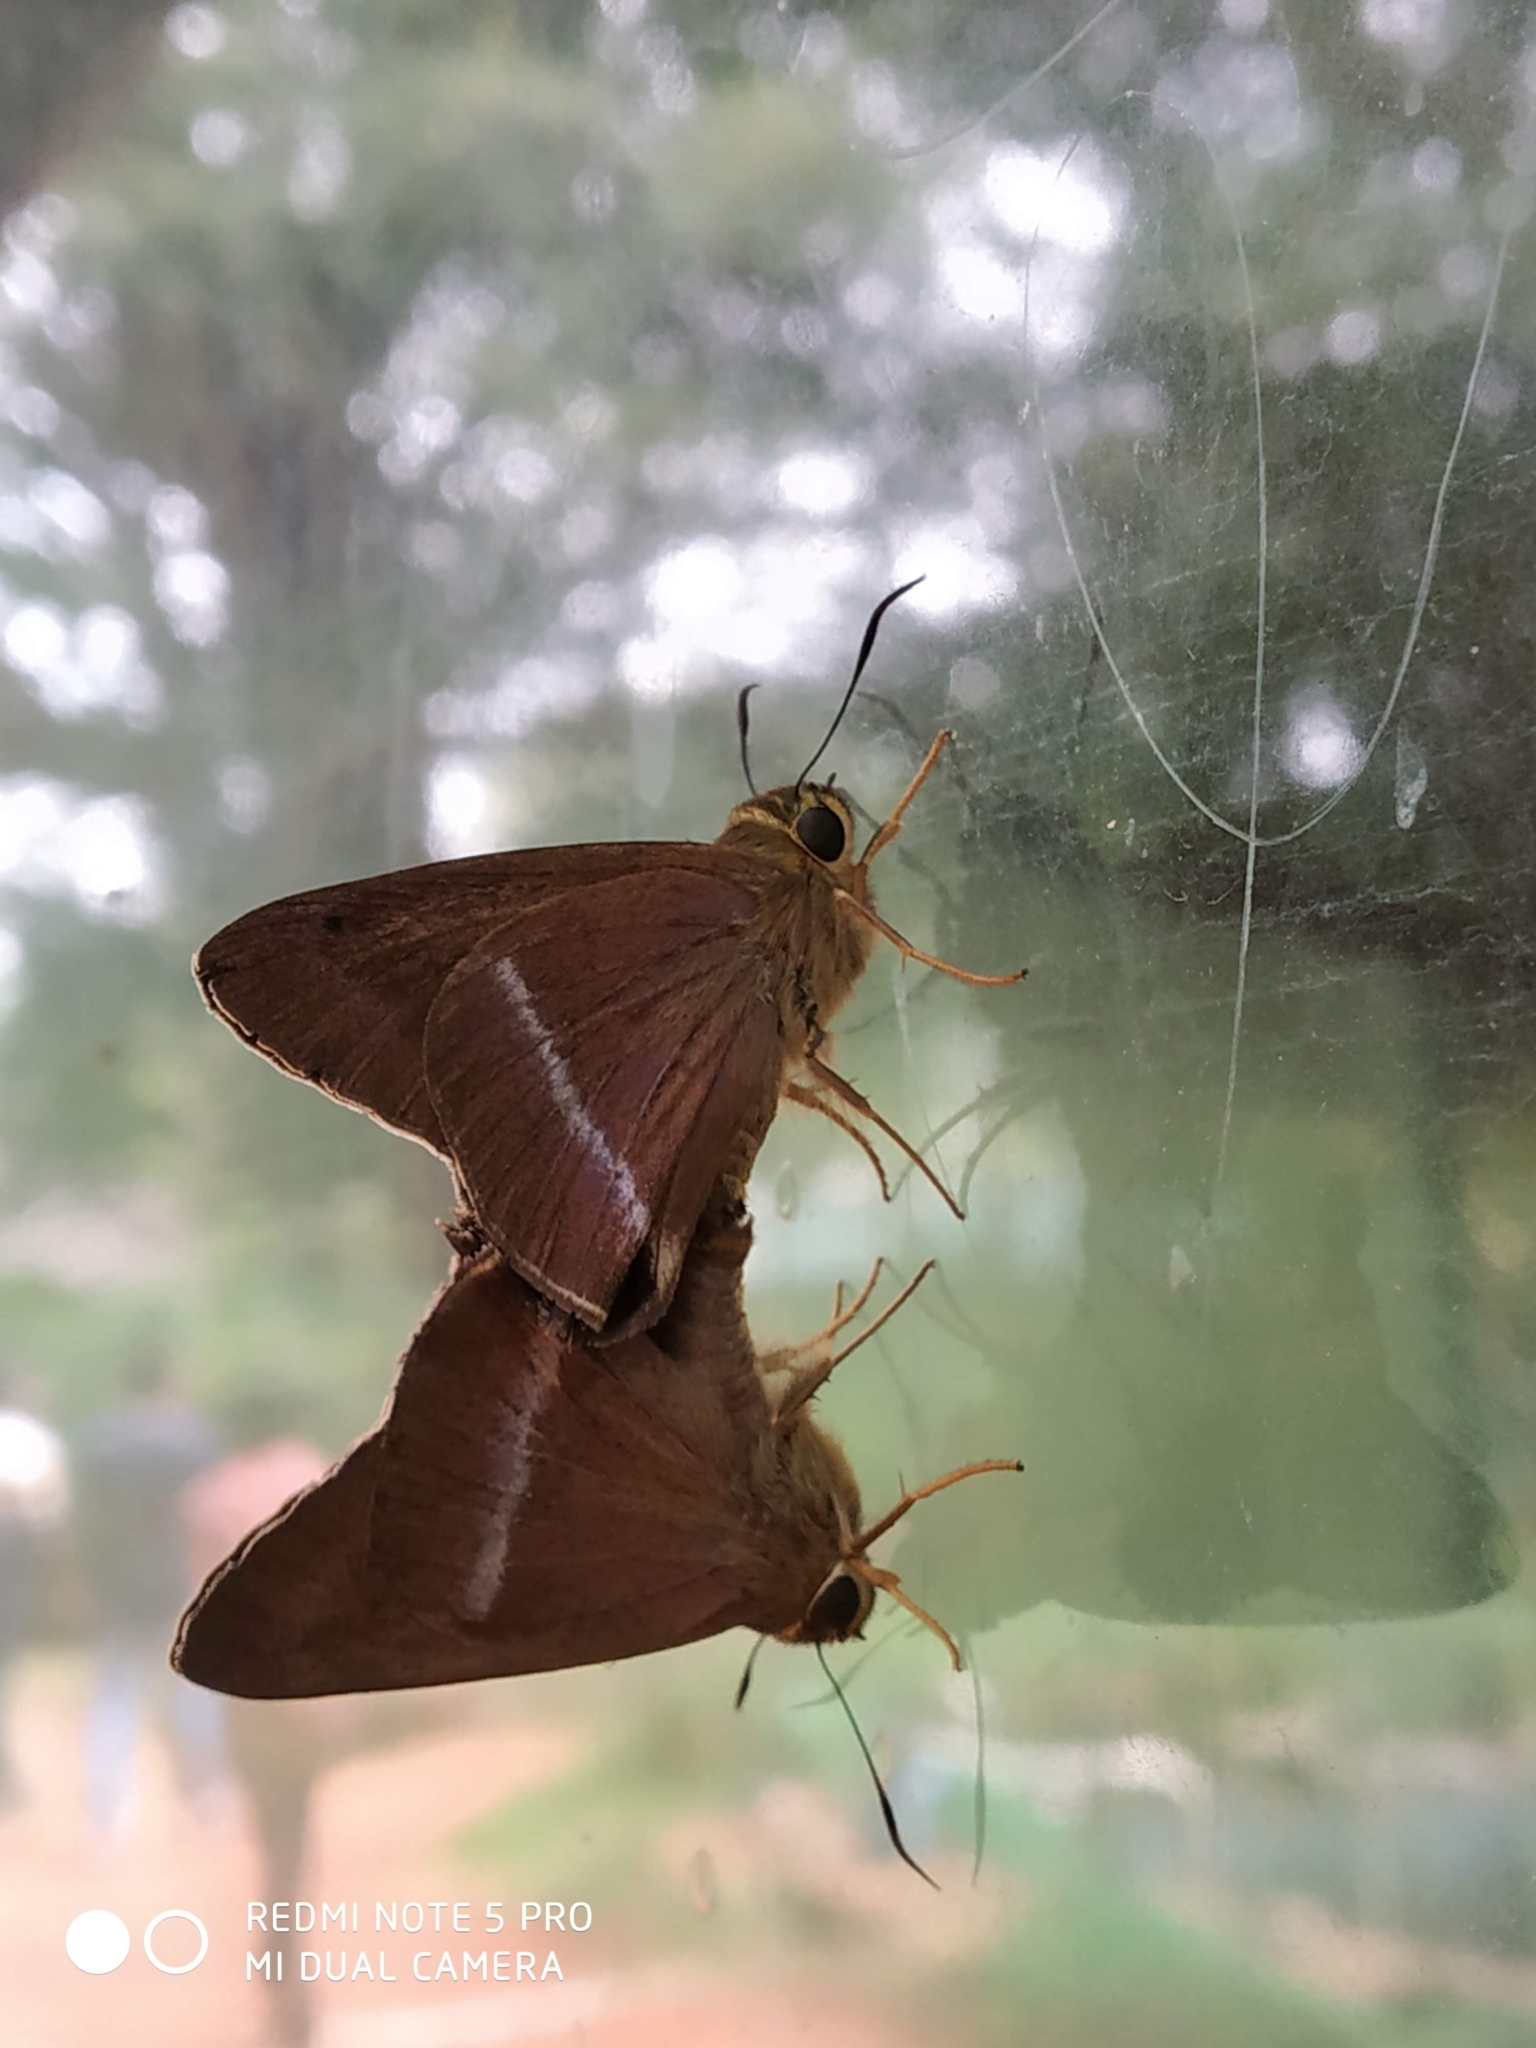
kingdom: Animalia
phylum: Arthropoda
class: Insecta
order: Lepidoptera
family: Hesperiidae
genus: Hasora
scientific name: Hasora chromus
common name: Common banded awl
